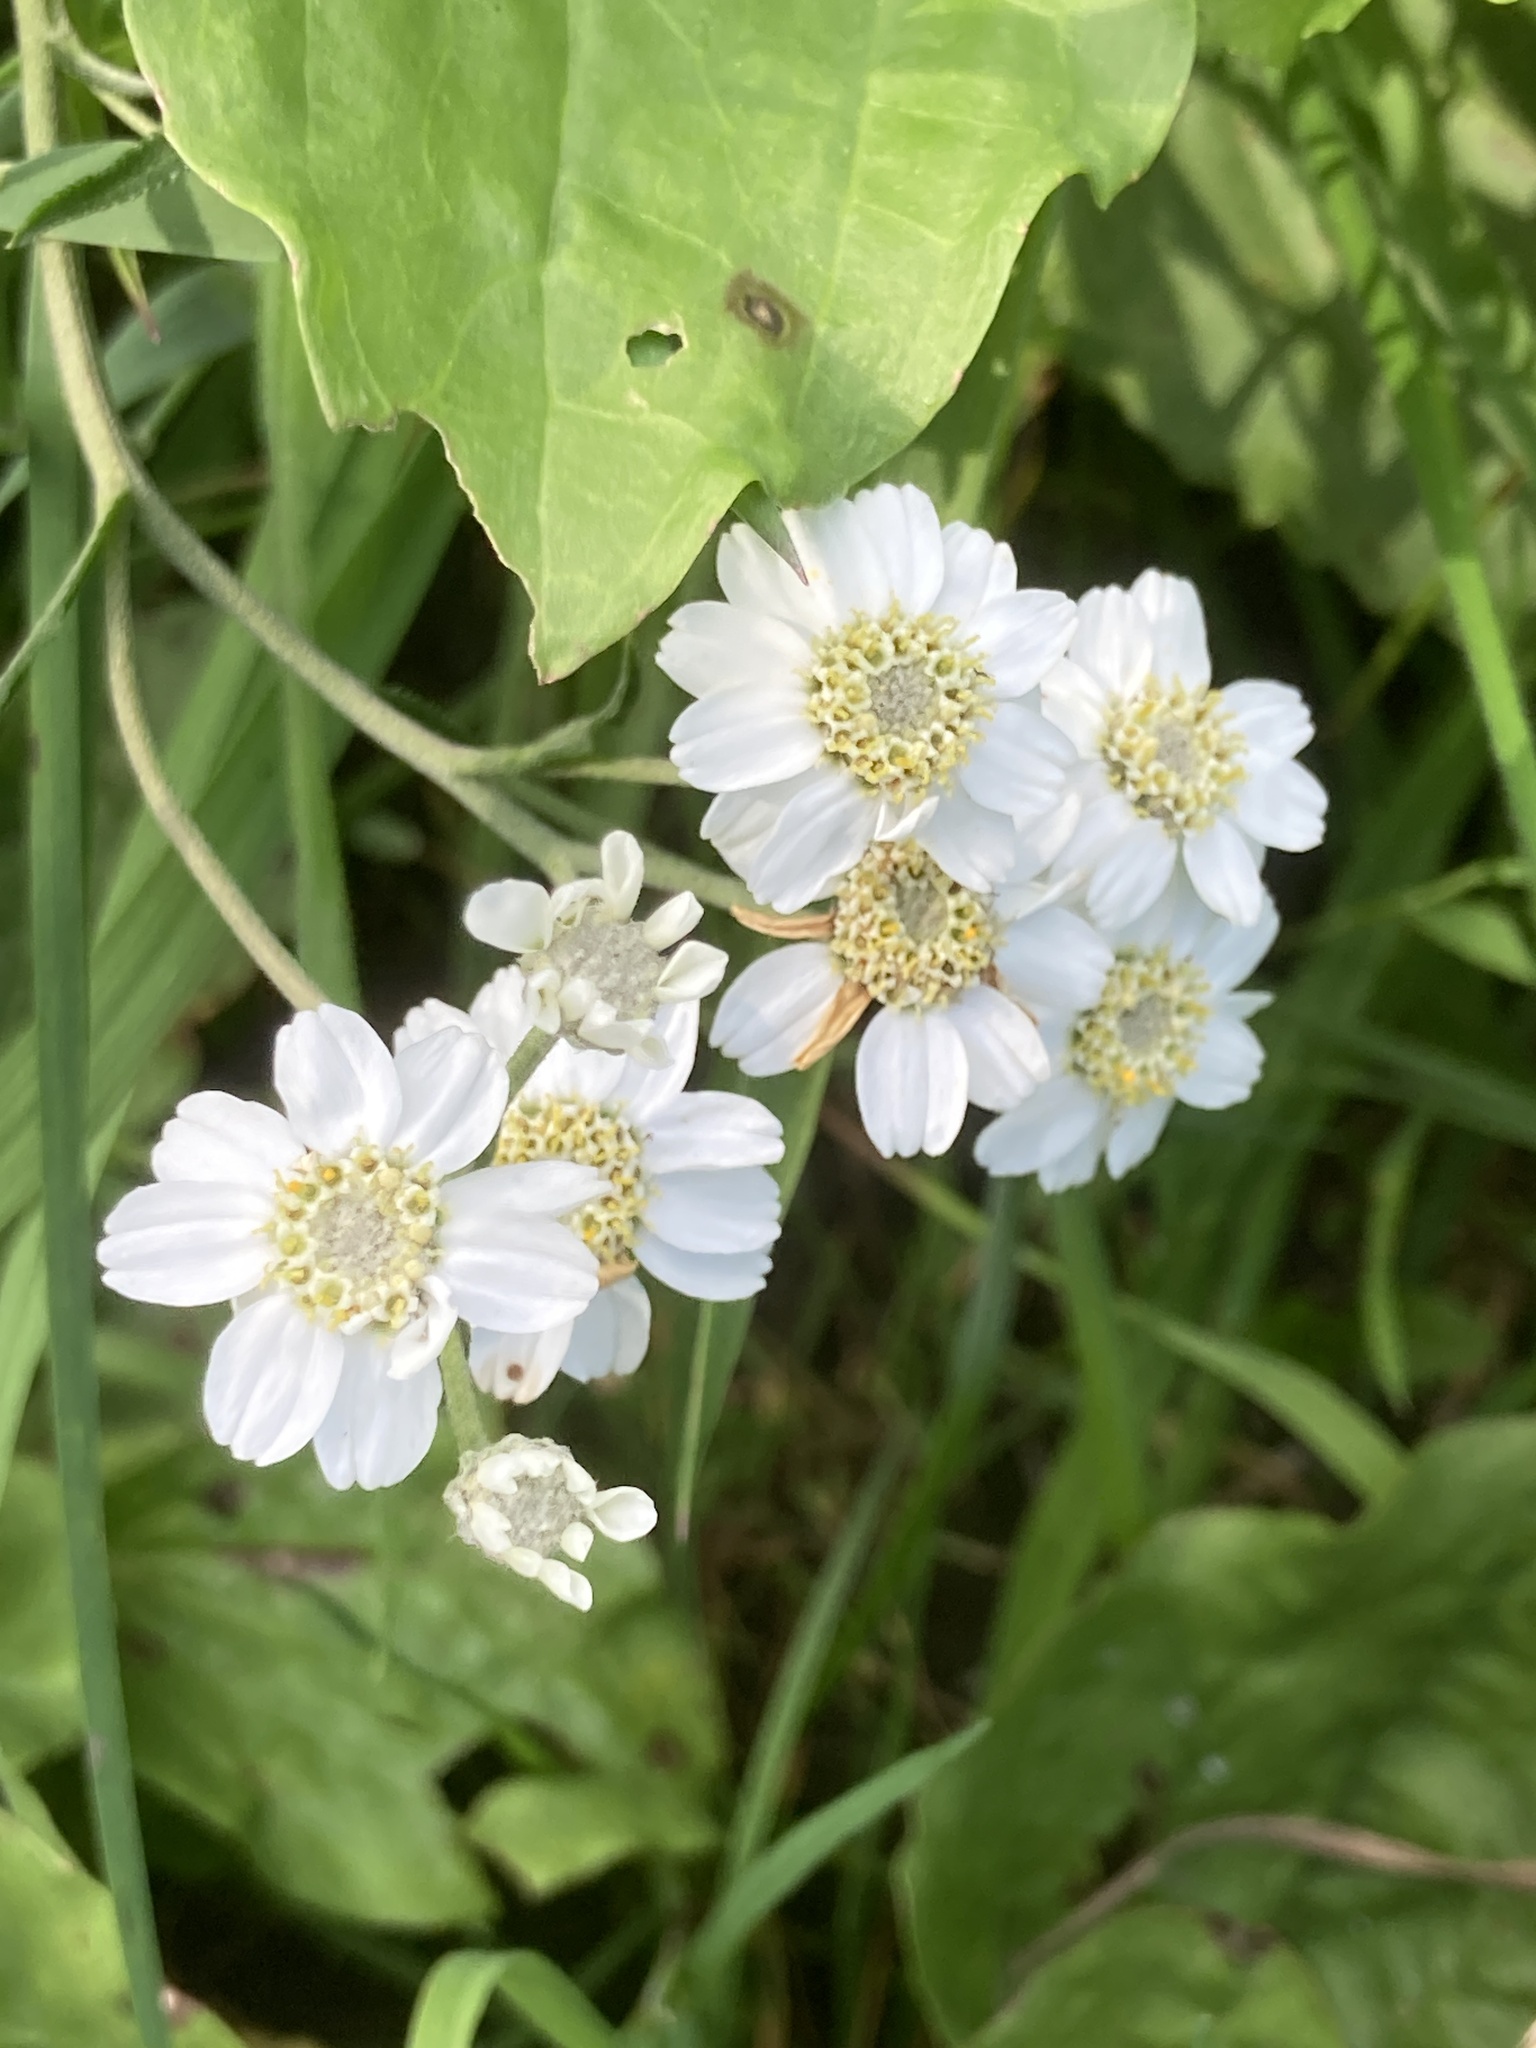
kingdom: Plantae
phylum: Tracheophyta
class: Magnoliopsida
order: Asterales
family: Asteraceae
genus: Achillea
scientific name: Achillea ptarmica
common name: Sneezeweed
